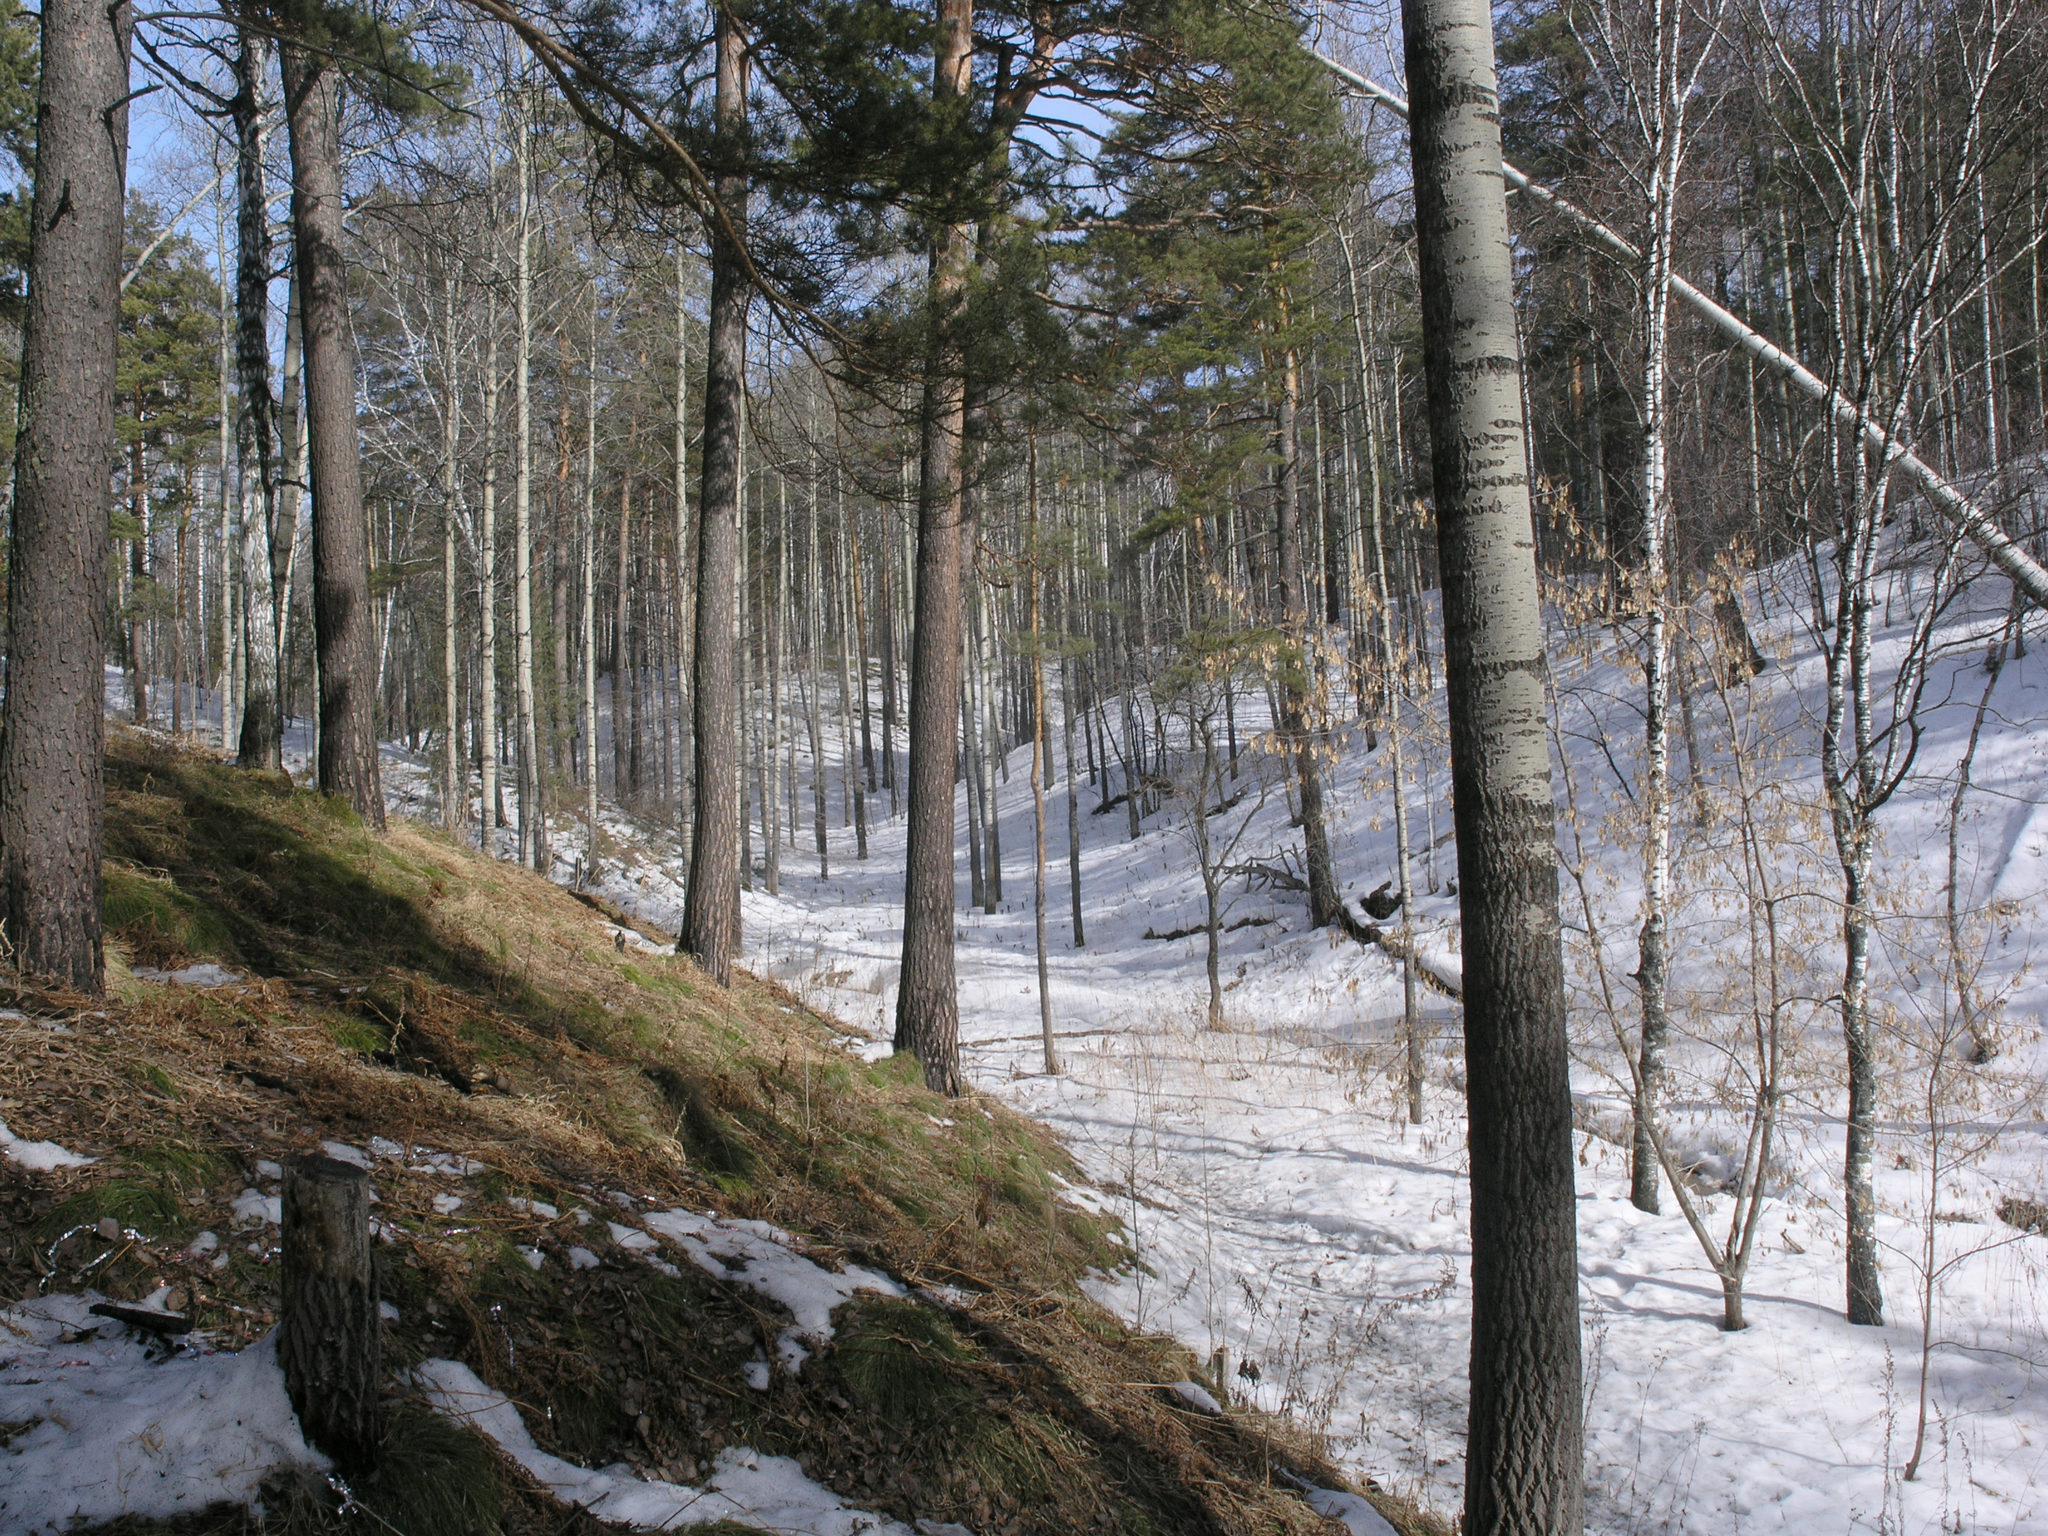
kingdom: Plantae
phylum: Tracheophyta
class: Pinopsida
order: Pinales
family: Pinaceae
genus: Pinus
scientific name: Pinus sylvestris
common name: Scots pine
